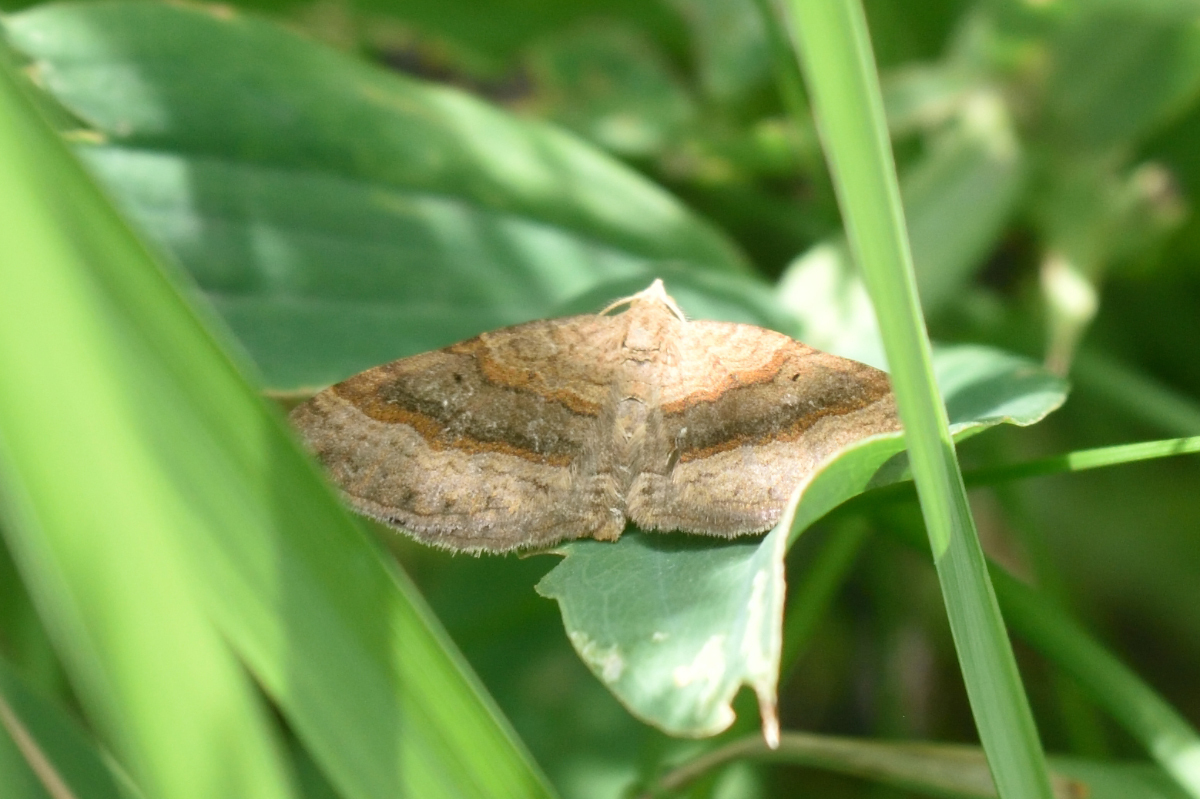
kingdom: Animalia
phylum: Arthropoda
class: Insecta
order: Lepidoptera
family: Geometridae
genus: Scotopteryx
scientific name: Scotopteryx chenopodiata
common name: Shaded broad-bar
